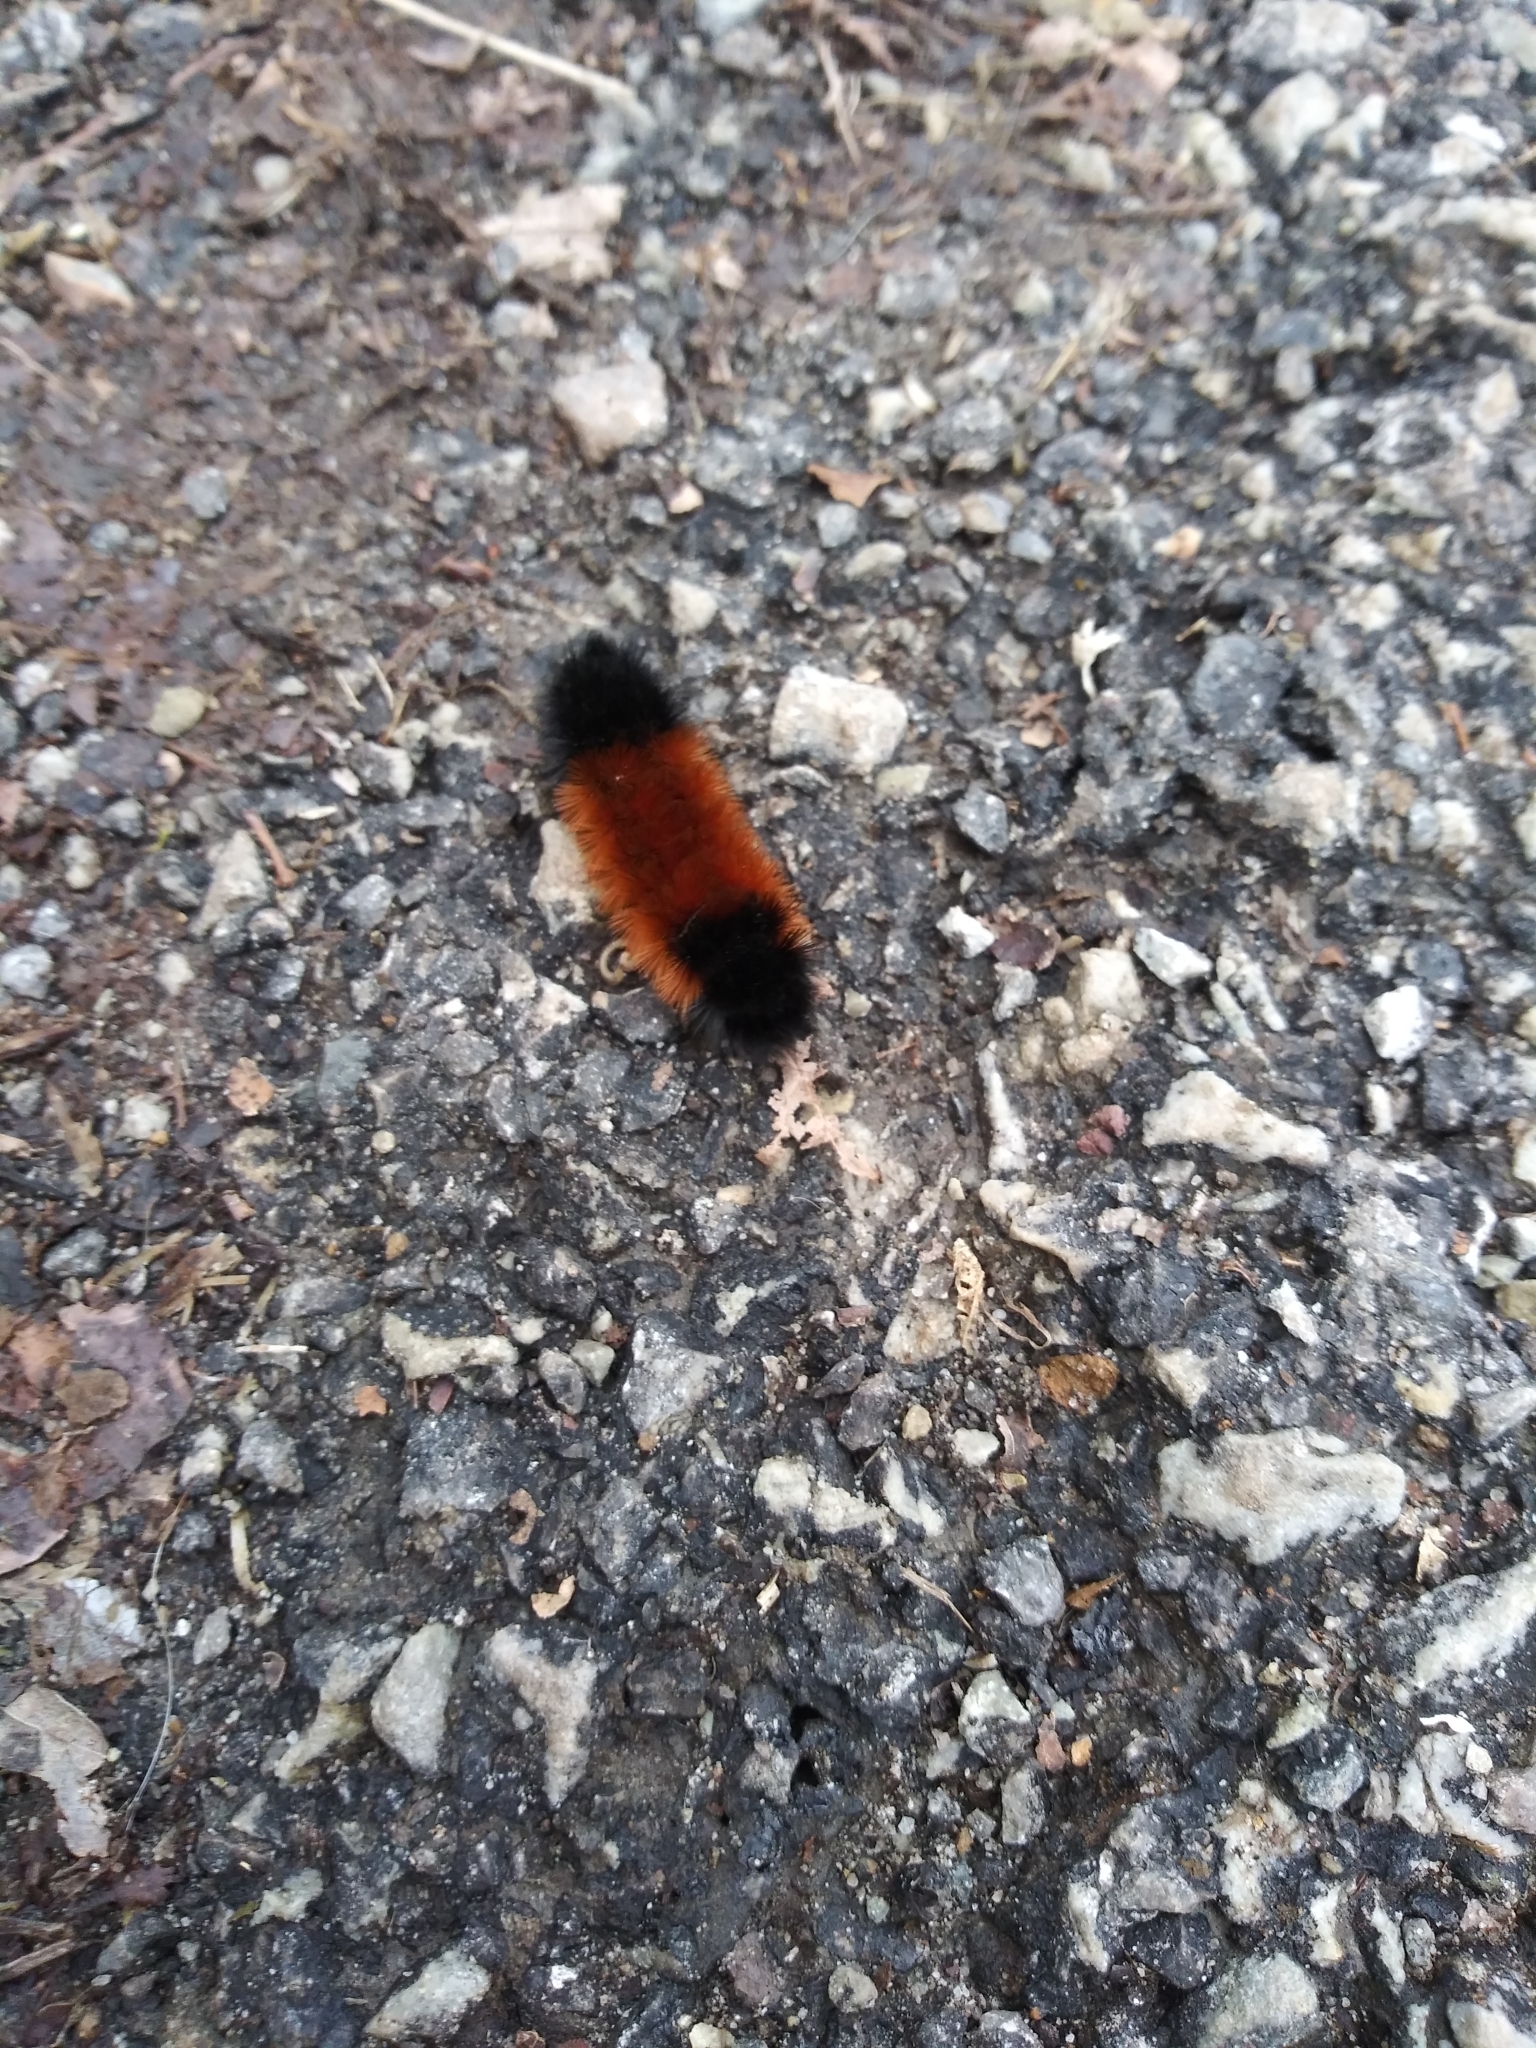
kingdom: Animalia
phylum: Arthropoda
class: Insecta
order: Lepidoptera
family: Erebidae
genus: Pyrrharctia
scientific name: Pyrrharctia isabella
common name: Isabella tiger moth
